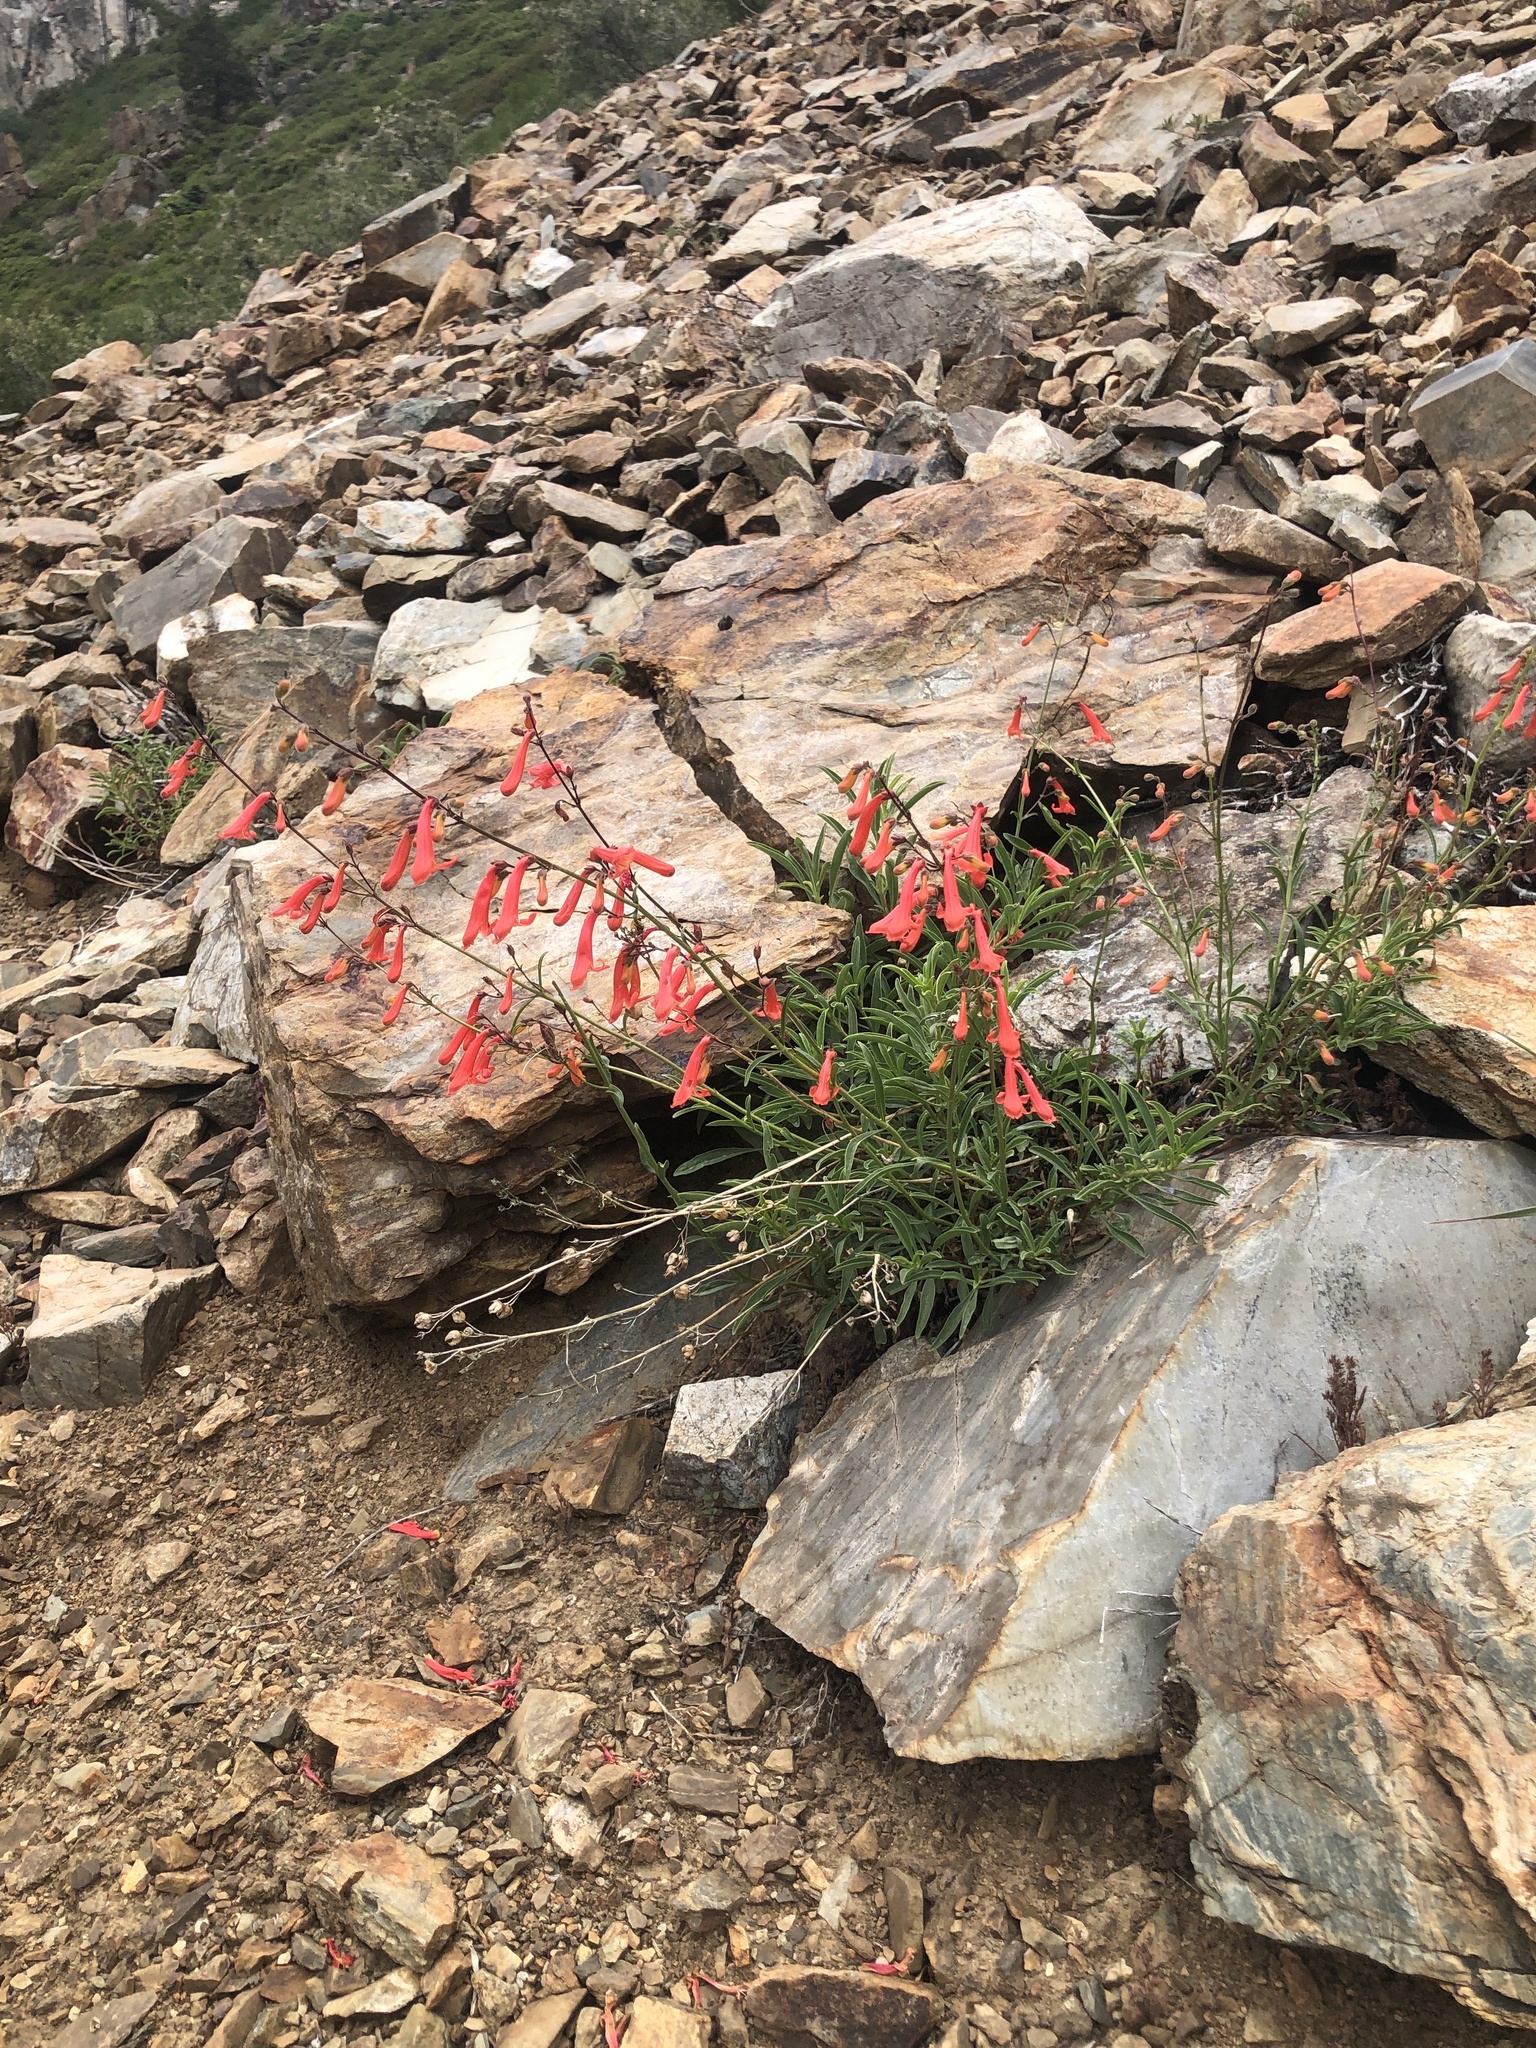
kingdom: Plantae
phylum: Tracheophyta
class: Magnoliopsida
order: Lamiales
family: Plantaginaceae
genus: Penstemon
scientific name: Penstemon rostriflorus
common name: Bridges's penstemon
